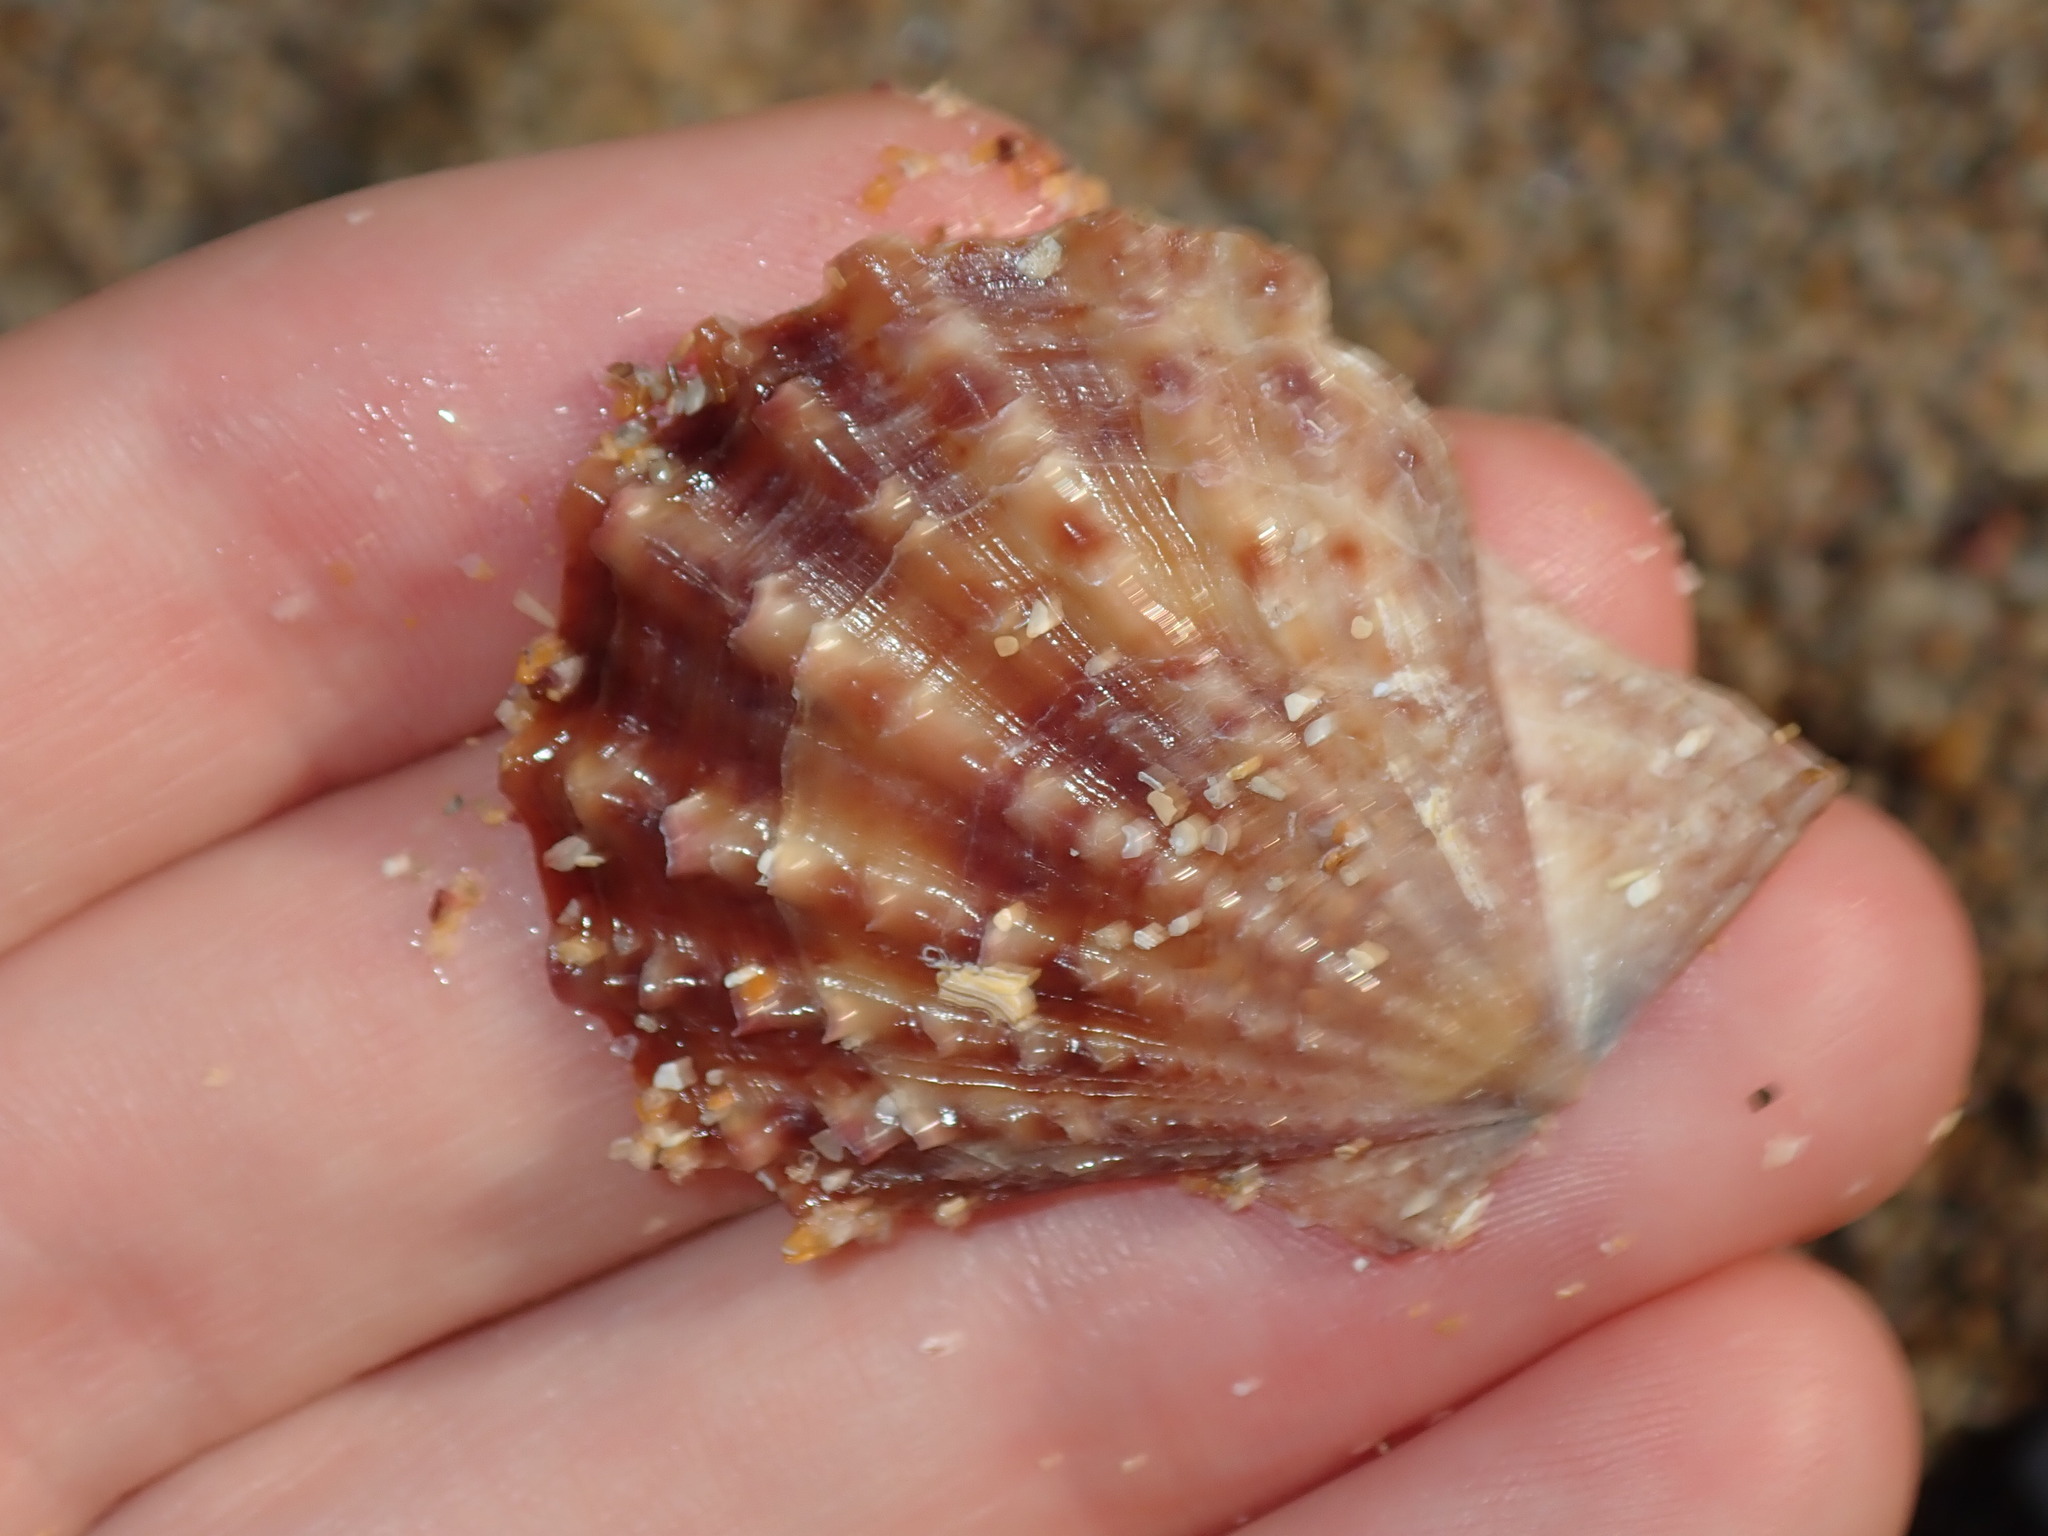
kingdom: Animalia
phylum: Mollusca
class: Bivalvia
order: Pectinida
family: Pectinidae
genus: Scaeochlamys
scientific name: Scaeochlamys livida
